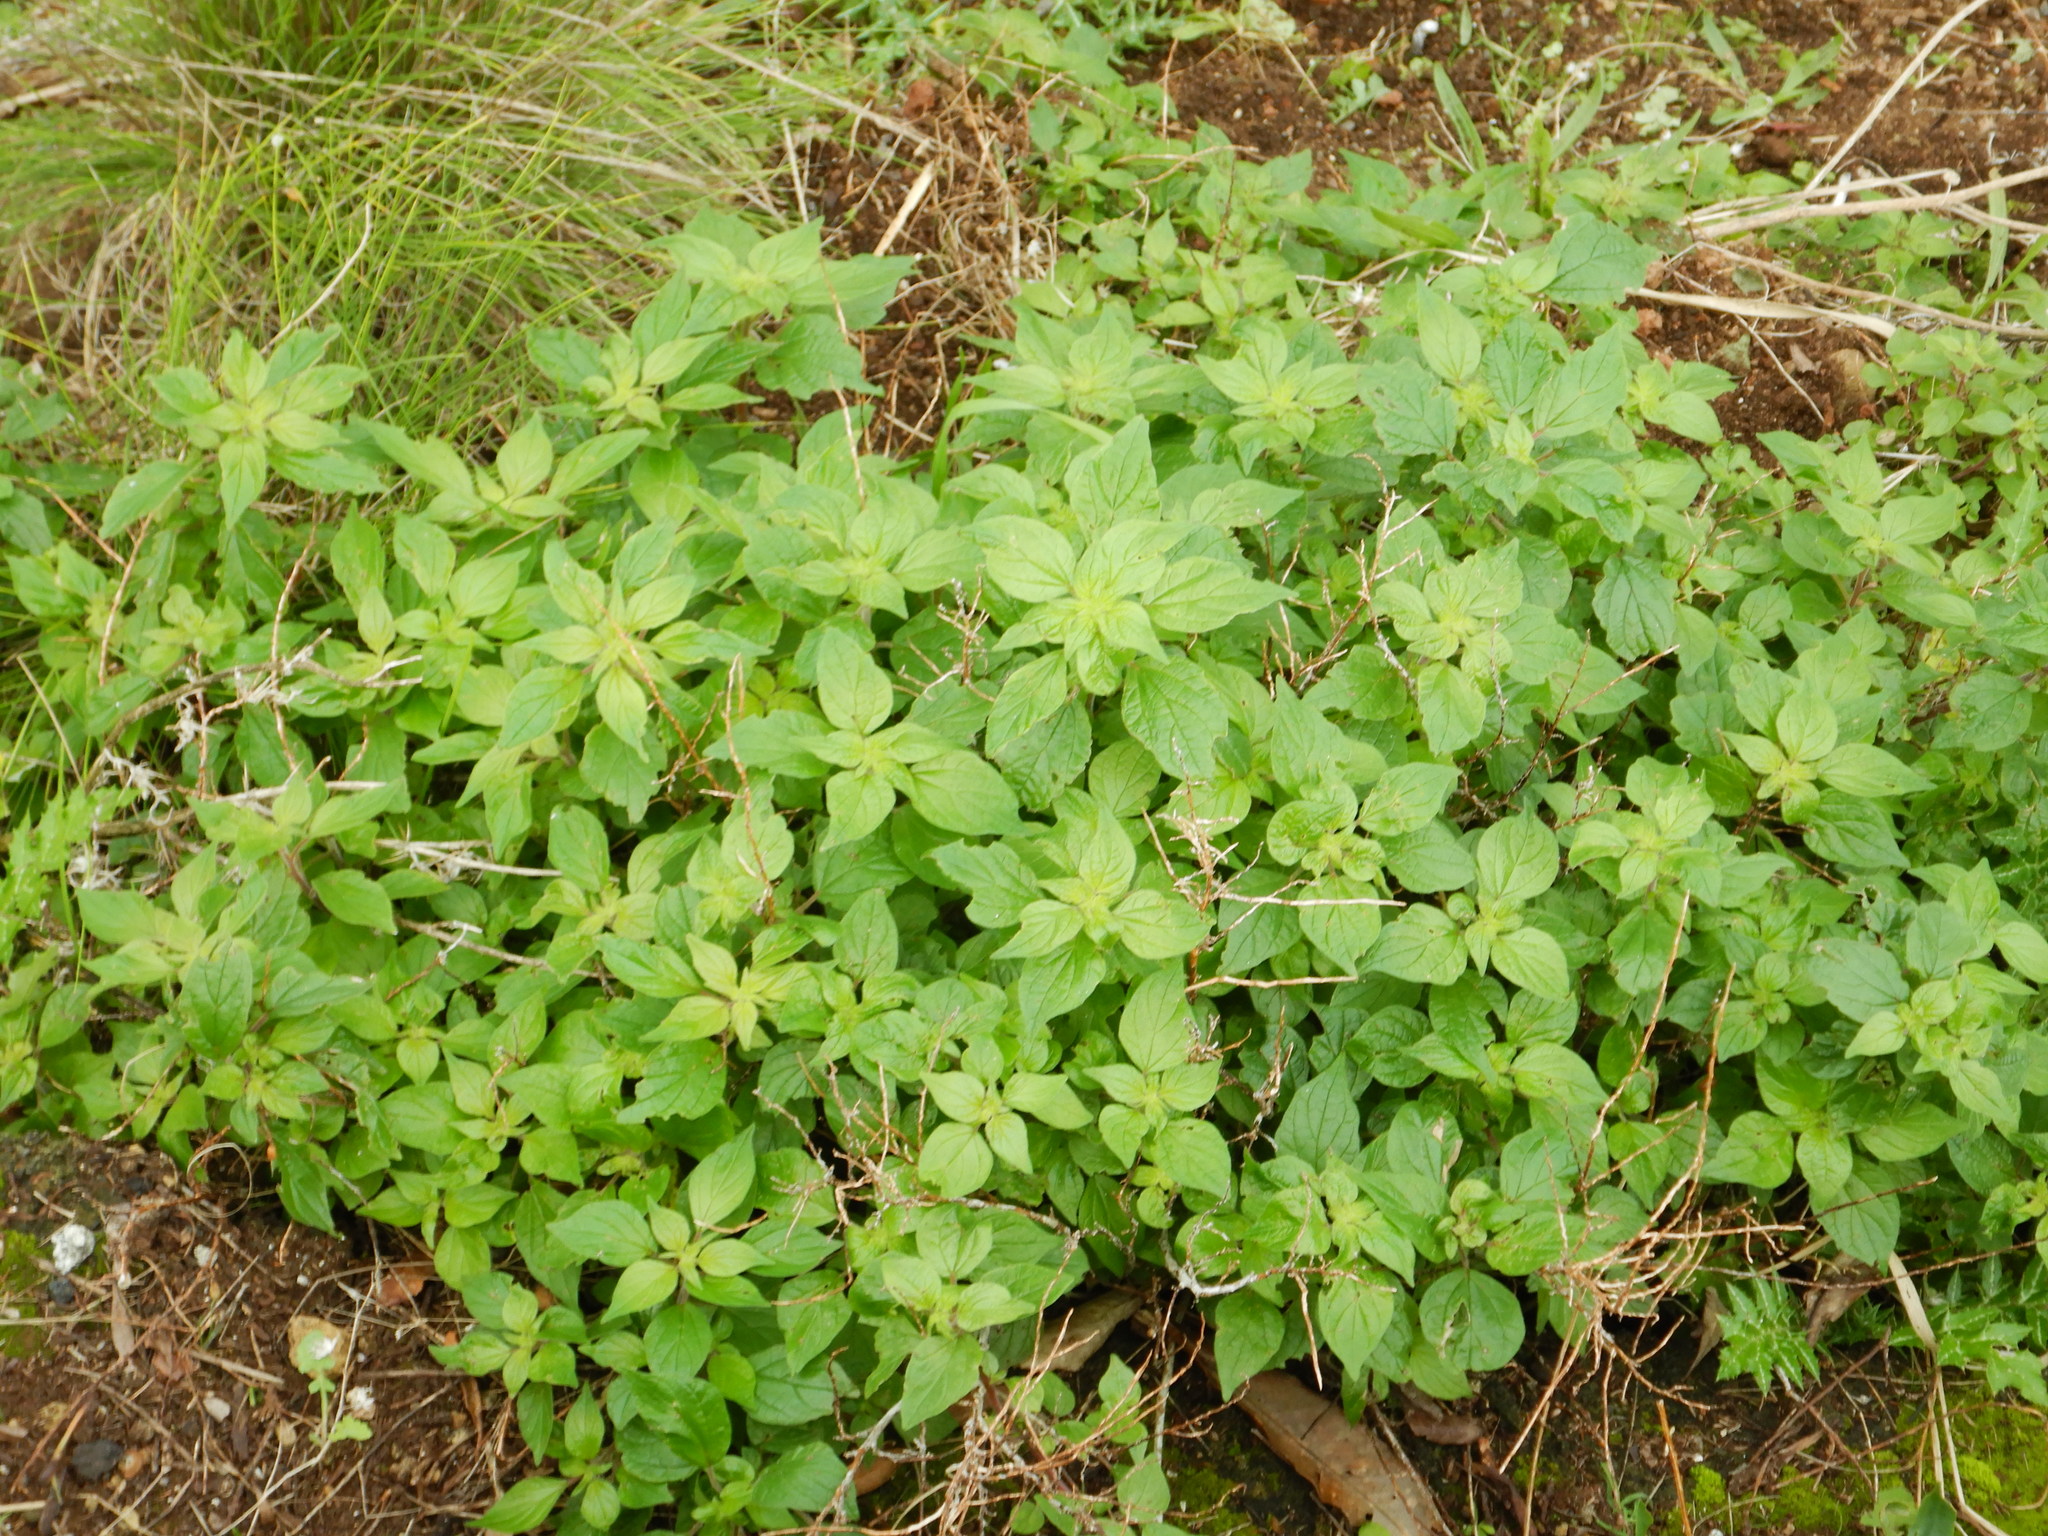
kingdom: Plantae
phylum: Tracheophyta
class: Magnoliopsida
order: Rosales
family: Urticaceae
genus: Parietaria
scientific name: Parietaria judaica
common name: Pellitory-of-the-wall
